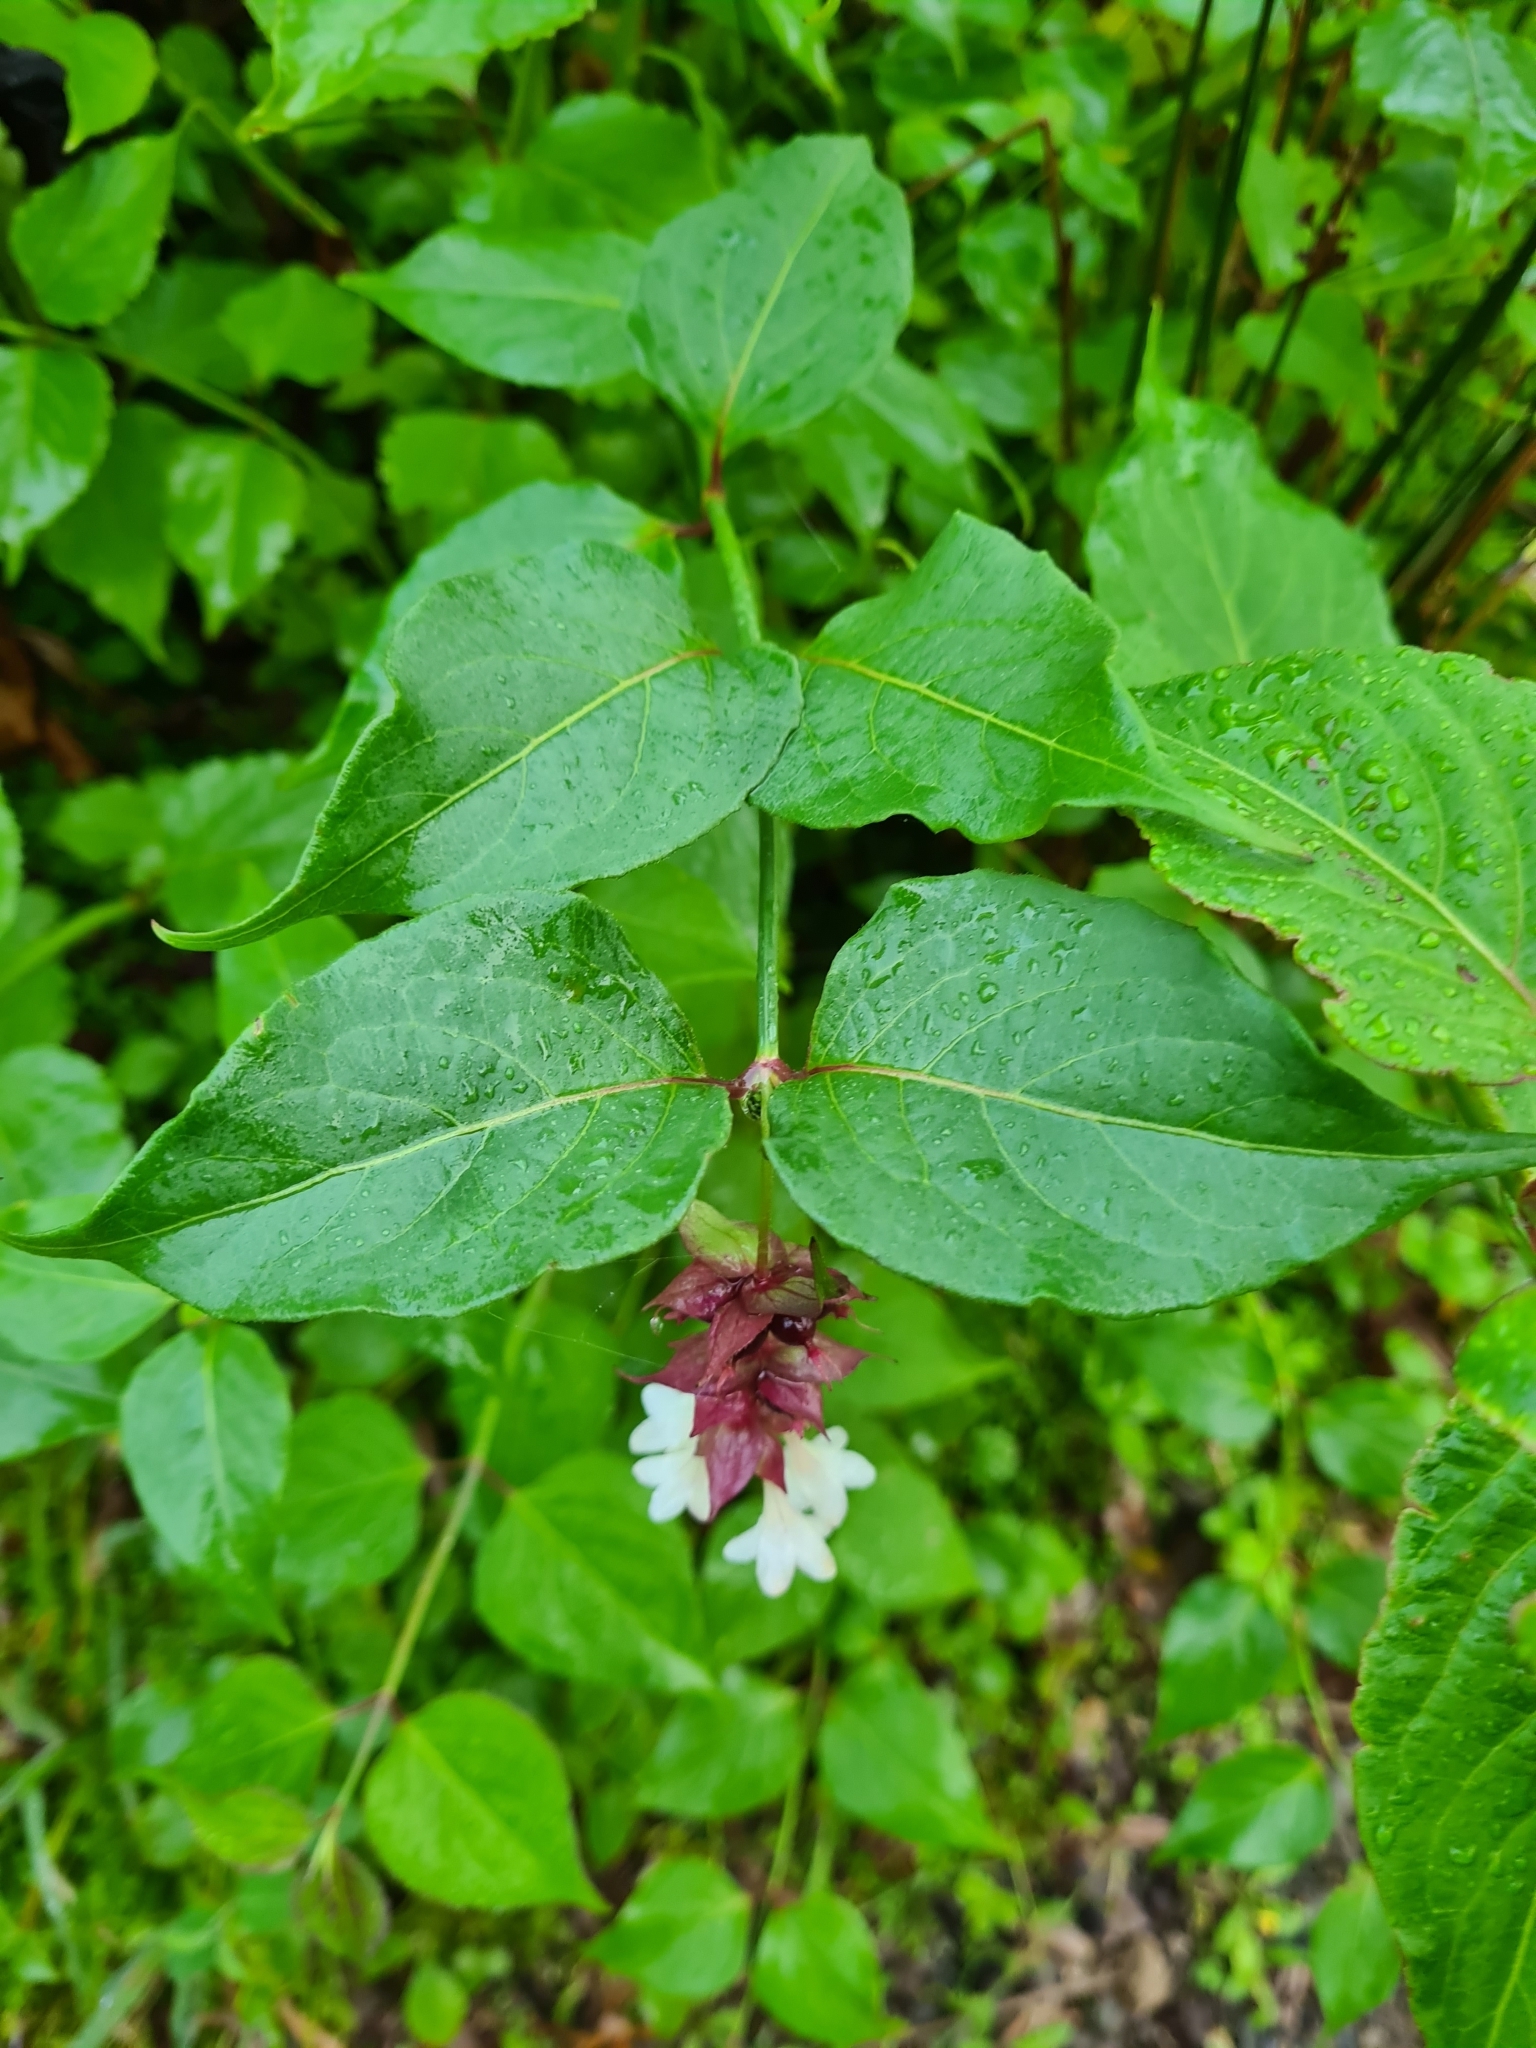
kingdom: Plantae
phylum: Tracheophyta
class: Magnoliopsida
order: Dipsacales
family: Caprifoliaceae
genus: Leycesteria
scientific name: Leycesteria formosa
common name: Himalayan honeysuckle
